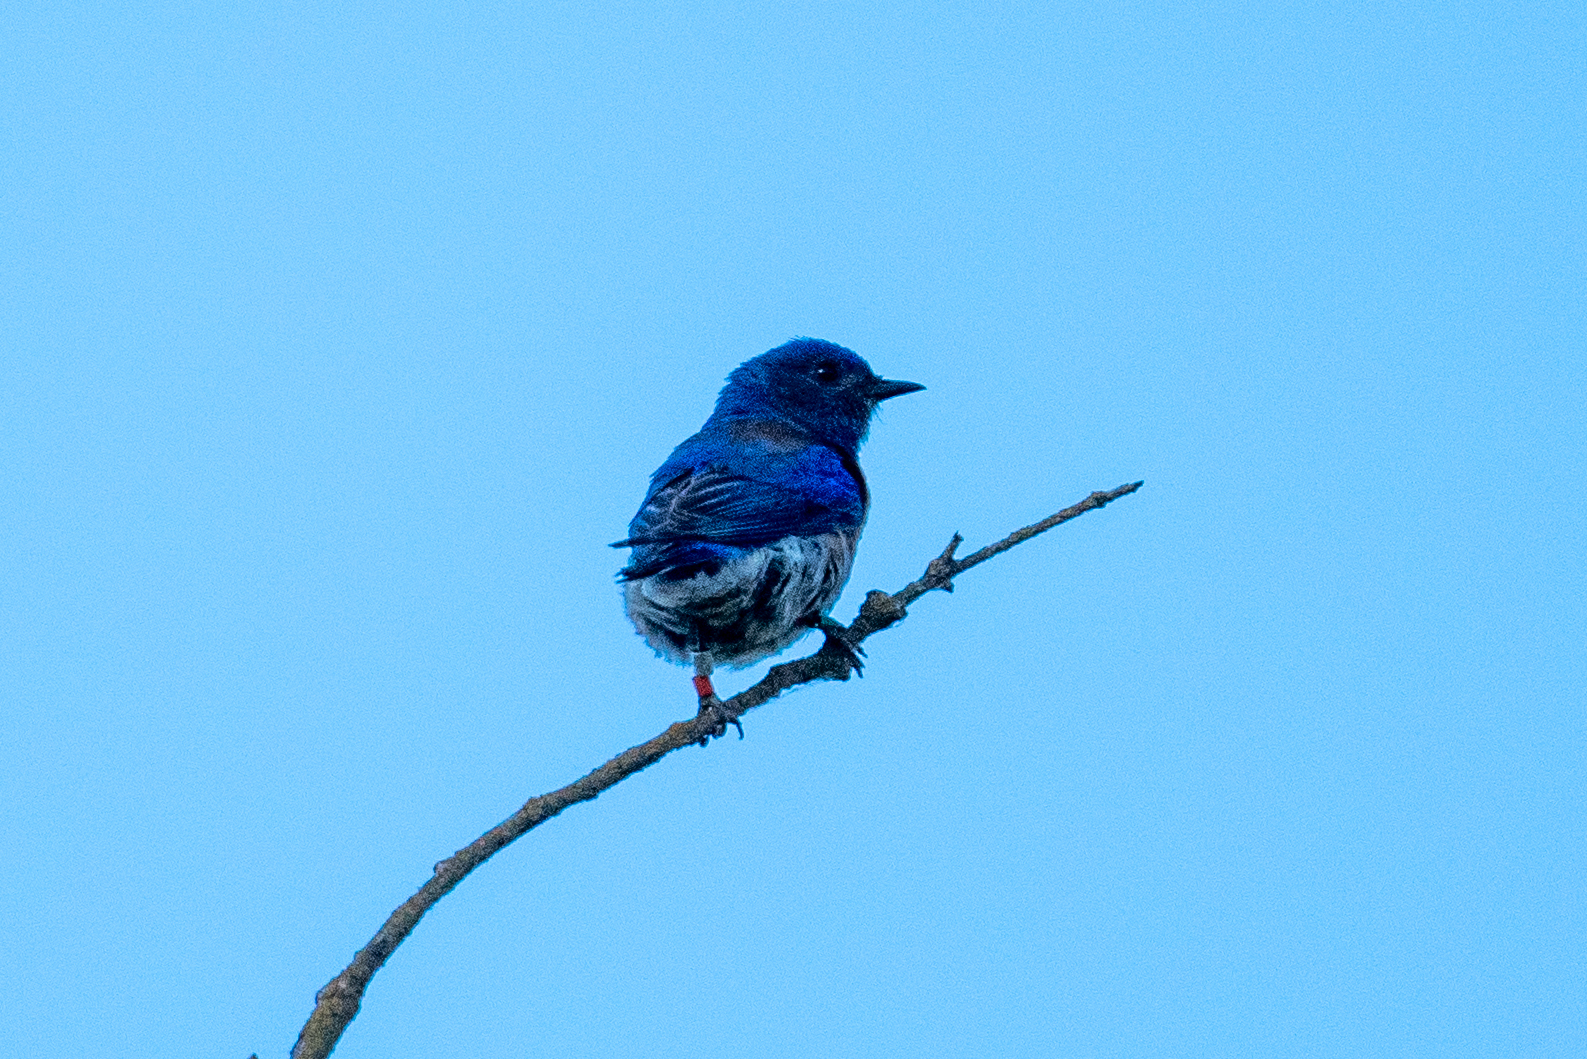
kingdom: Animalia
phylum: Chordata
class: Aves
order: Passeriformes
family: Turdidae
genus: Sialia
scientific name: Sialia mexicana
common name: Western bluebird
